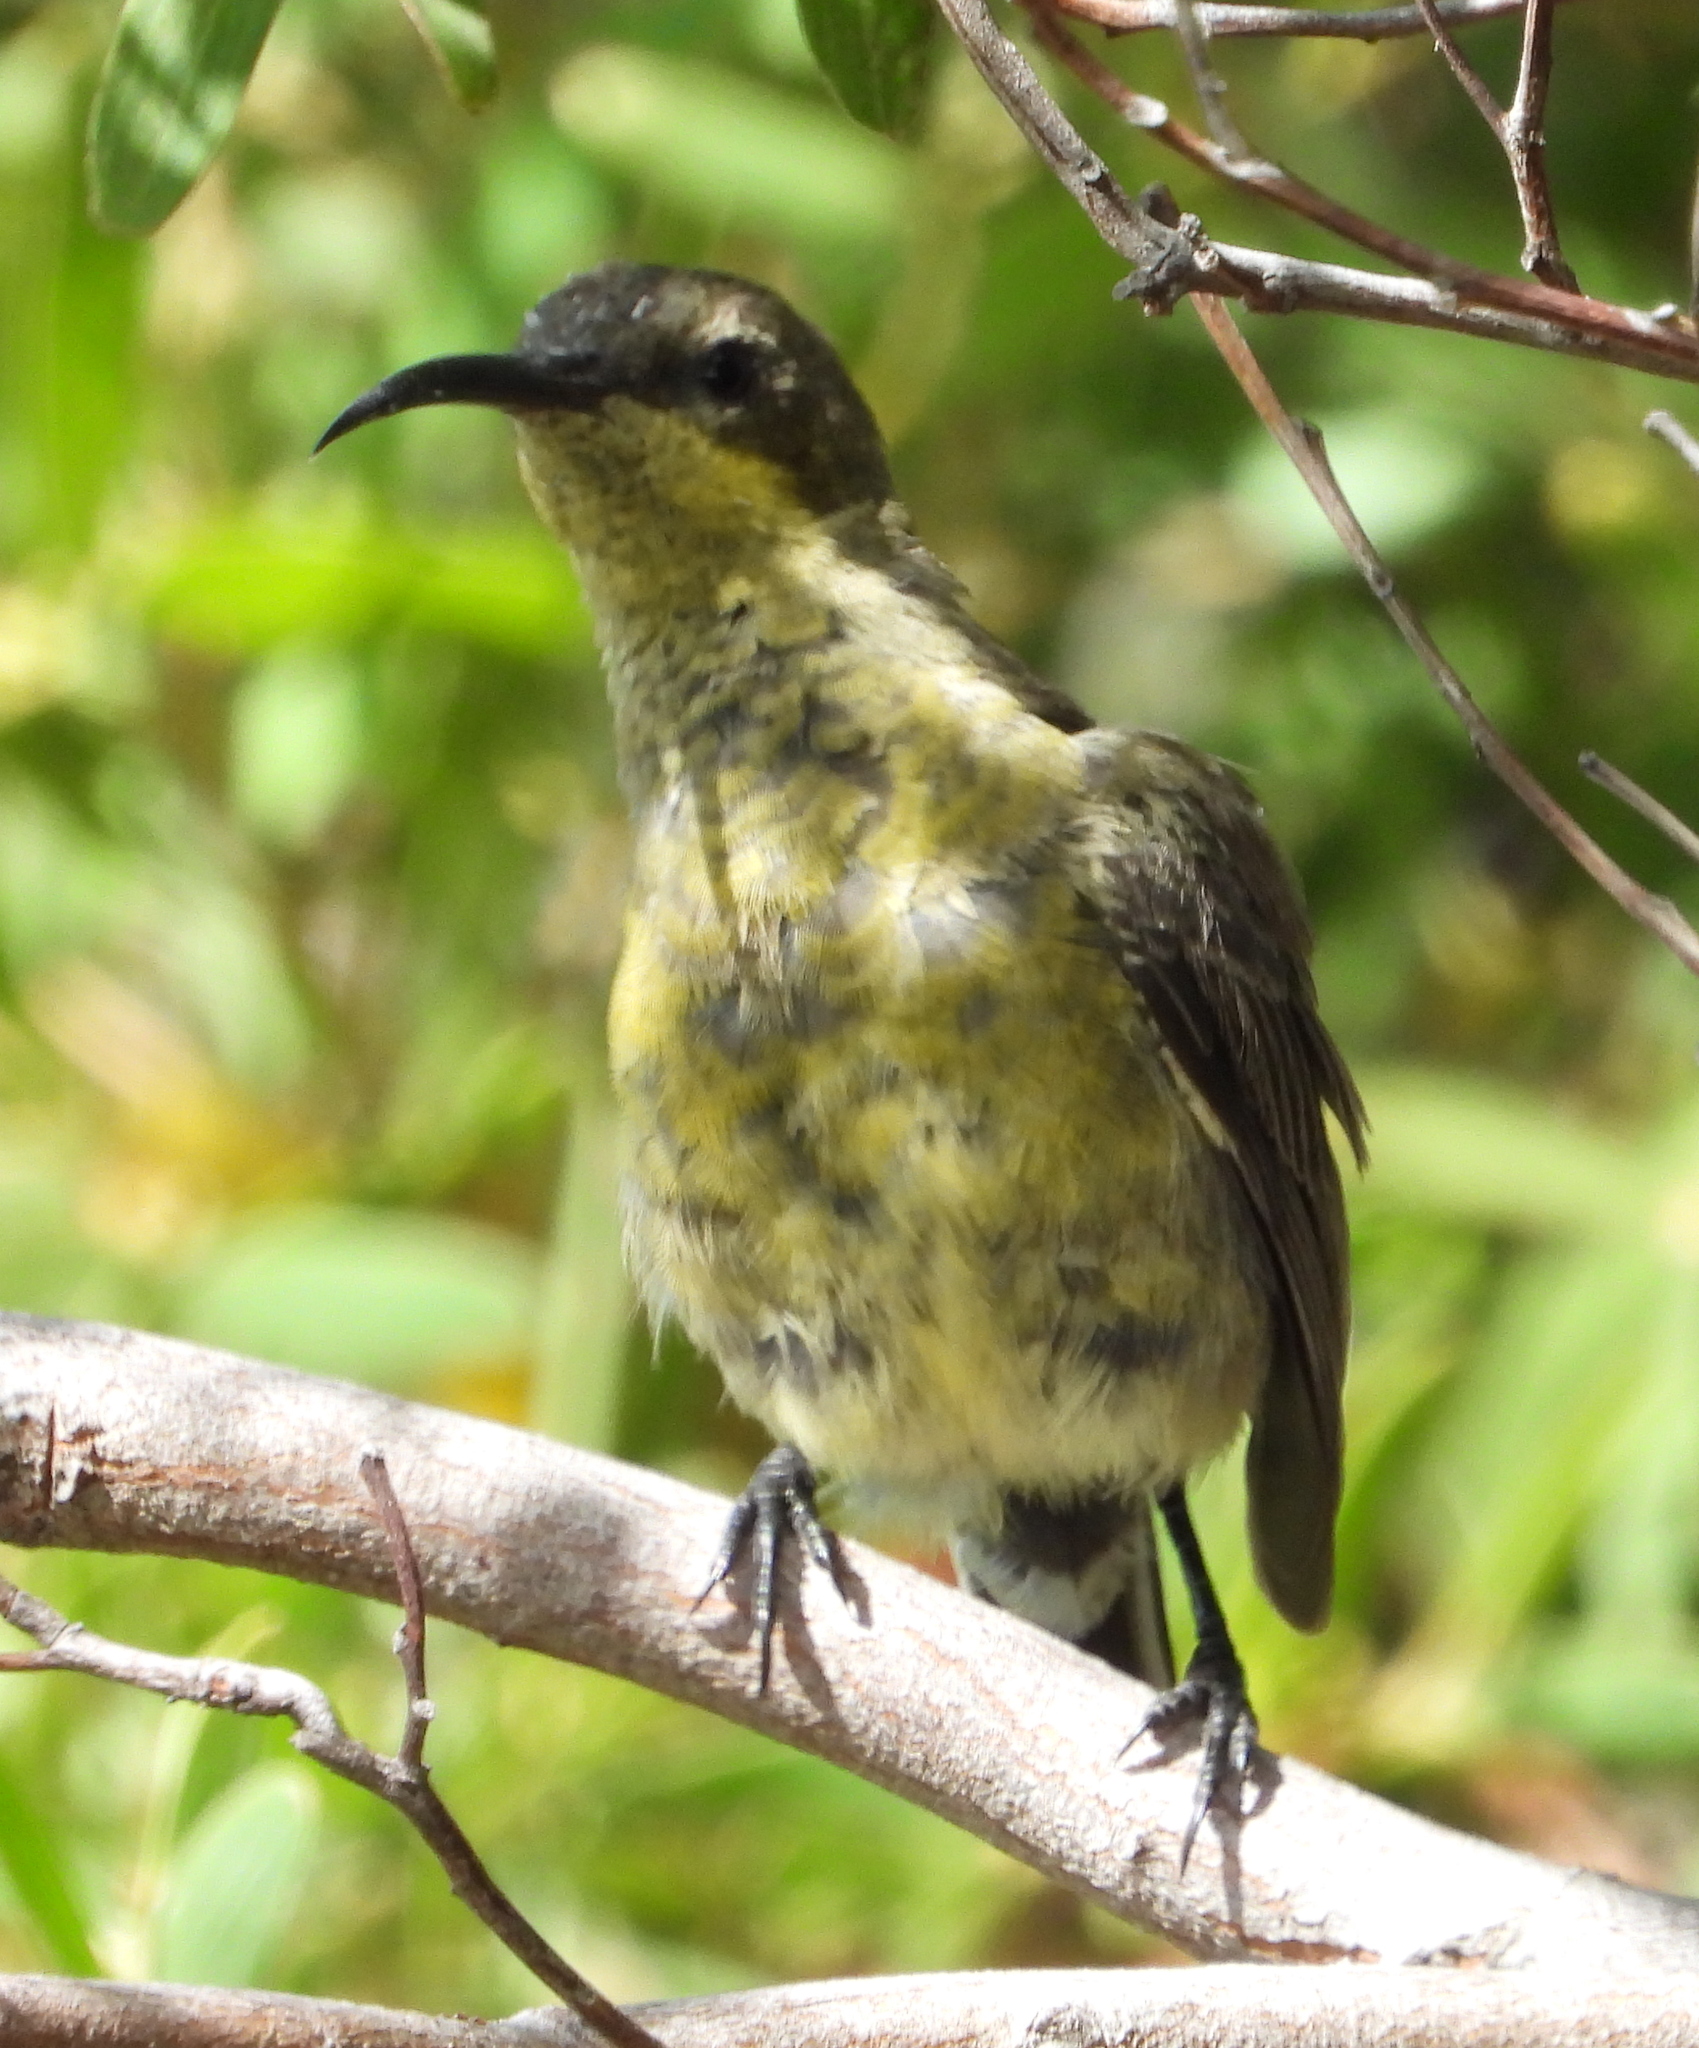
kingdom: Animalia
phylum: Chordata
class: Aves
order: Passeriformes
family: Nectariniidae
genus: Nectarinia
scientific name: Nectarinia famosa
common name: Malachite sunbird
